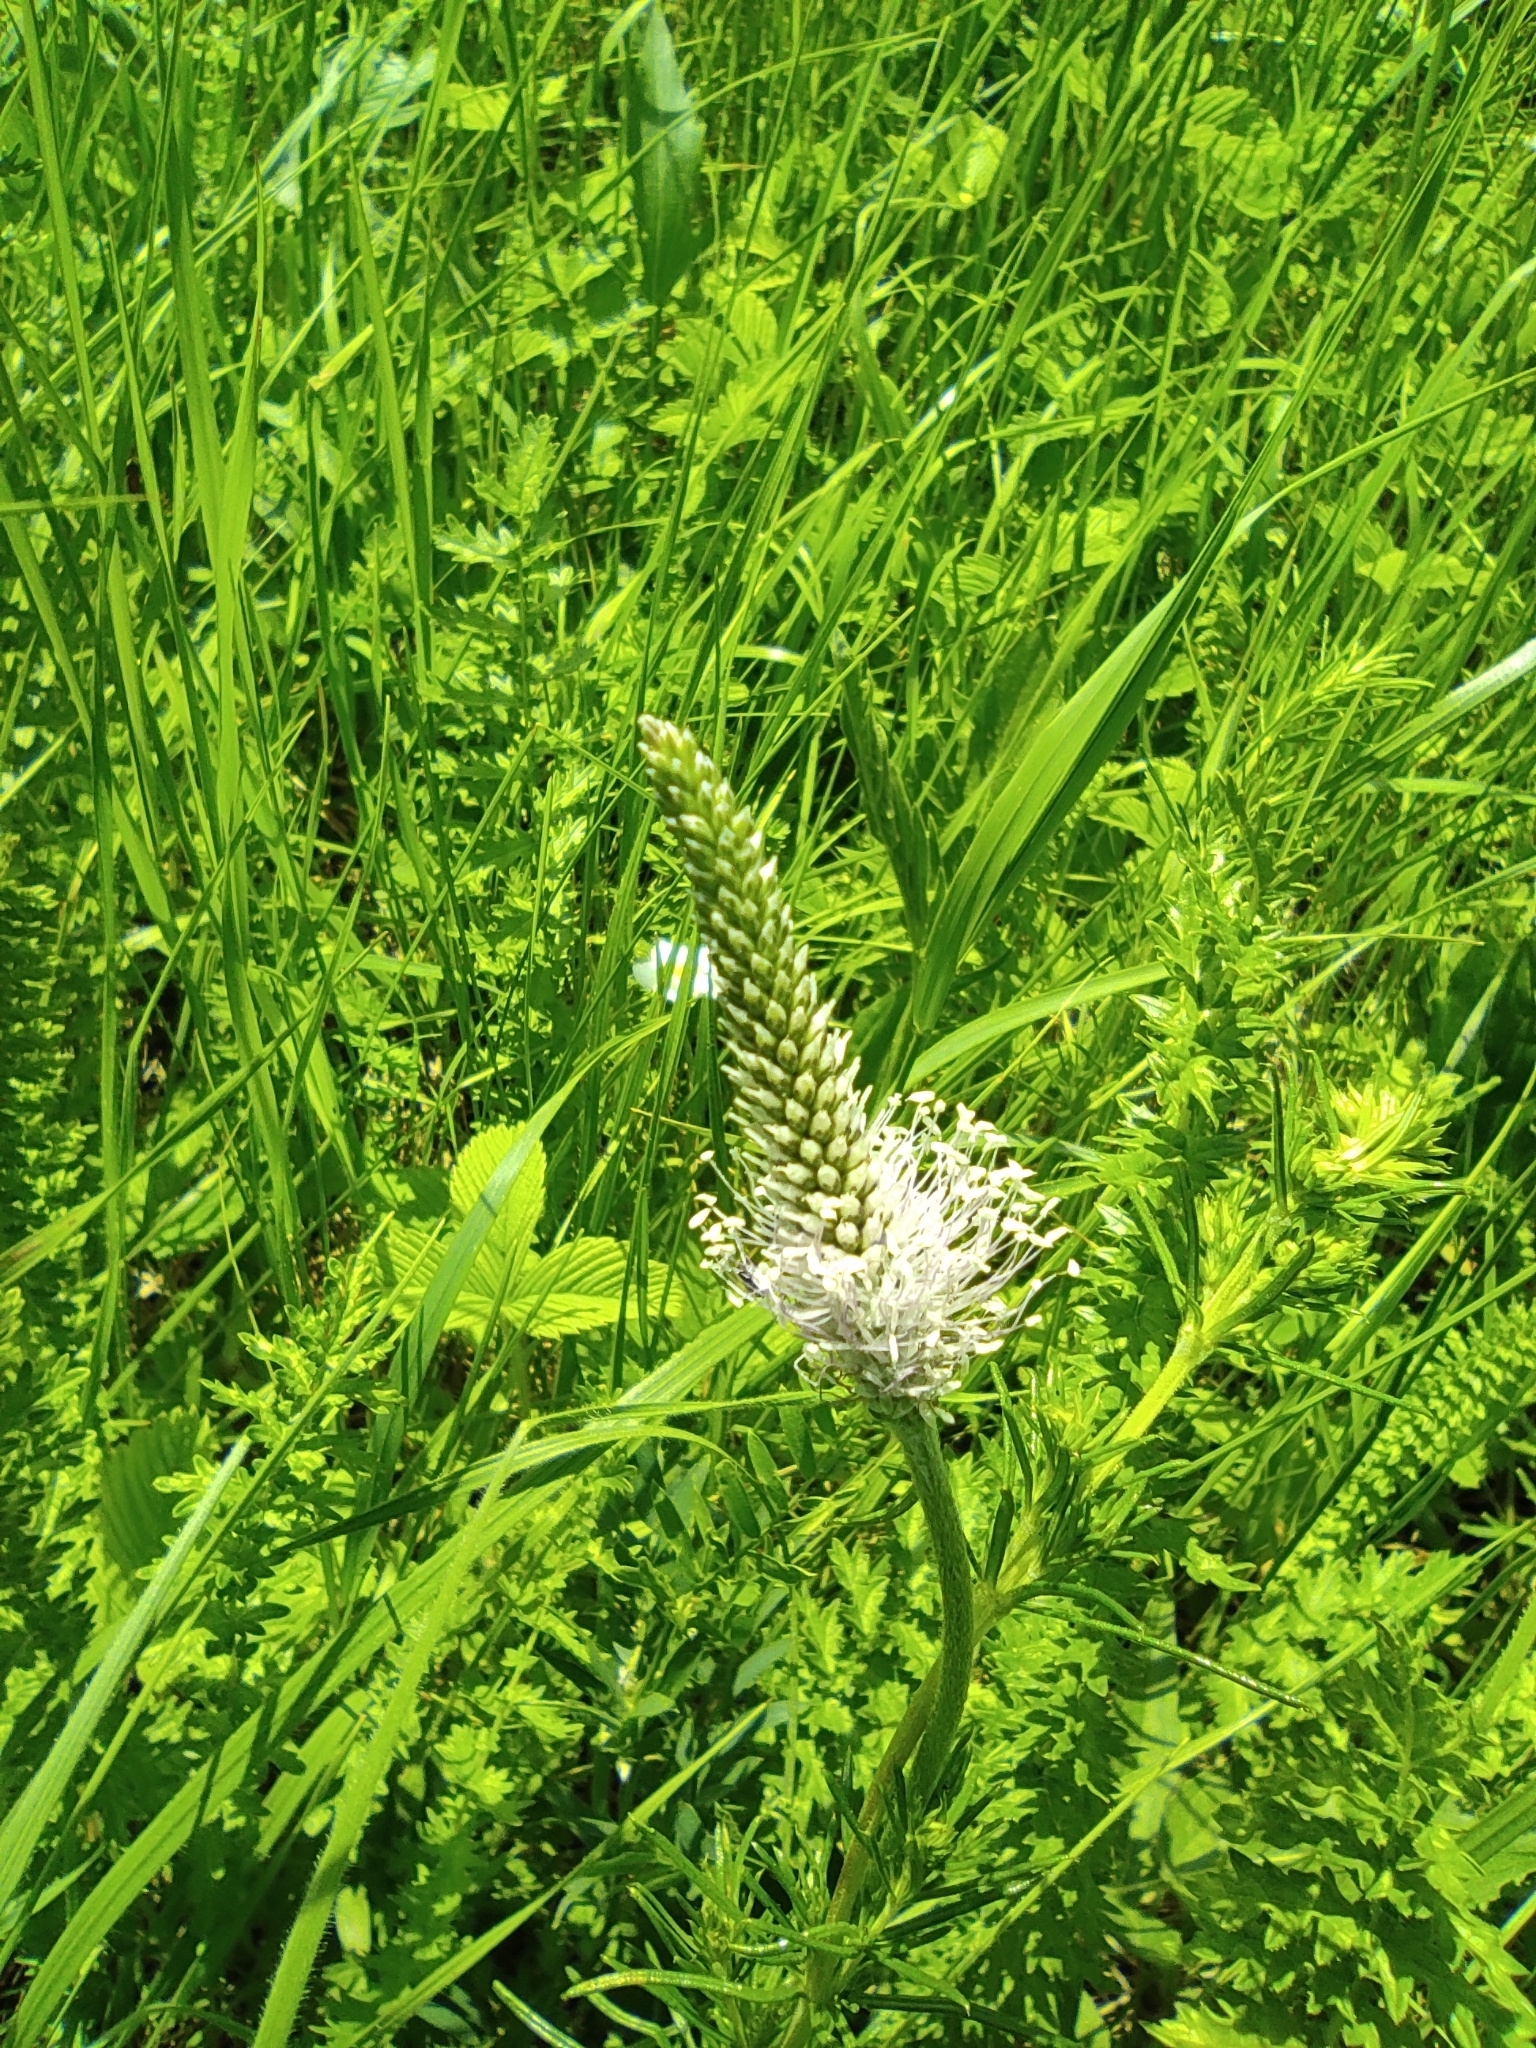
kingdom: Plantae
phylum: Tracheophyta
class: Magnoliopsida
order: Lamiales
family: Plantaginaceae
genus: Plantago
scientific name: Plantago media
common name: Hoary plantain
